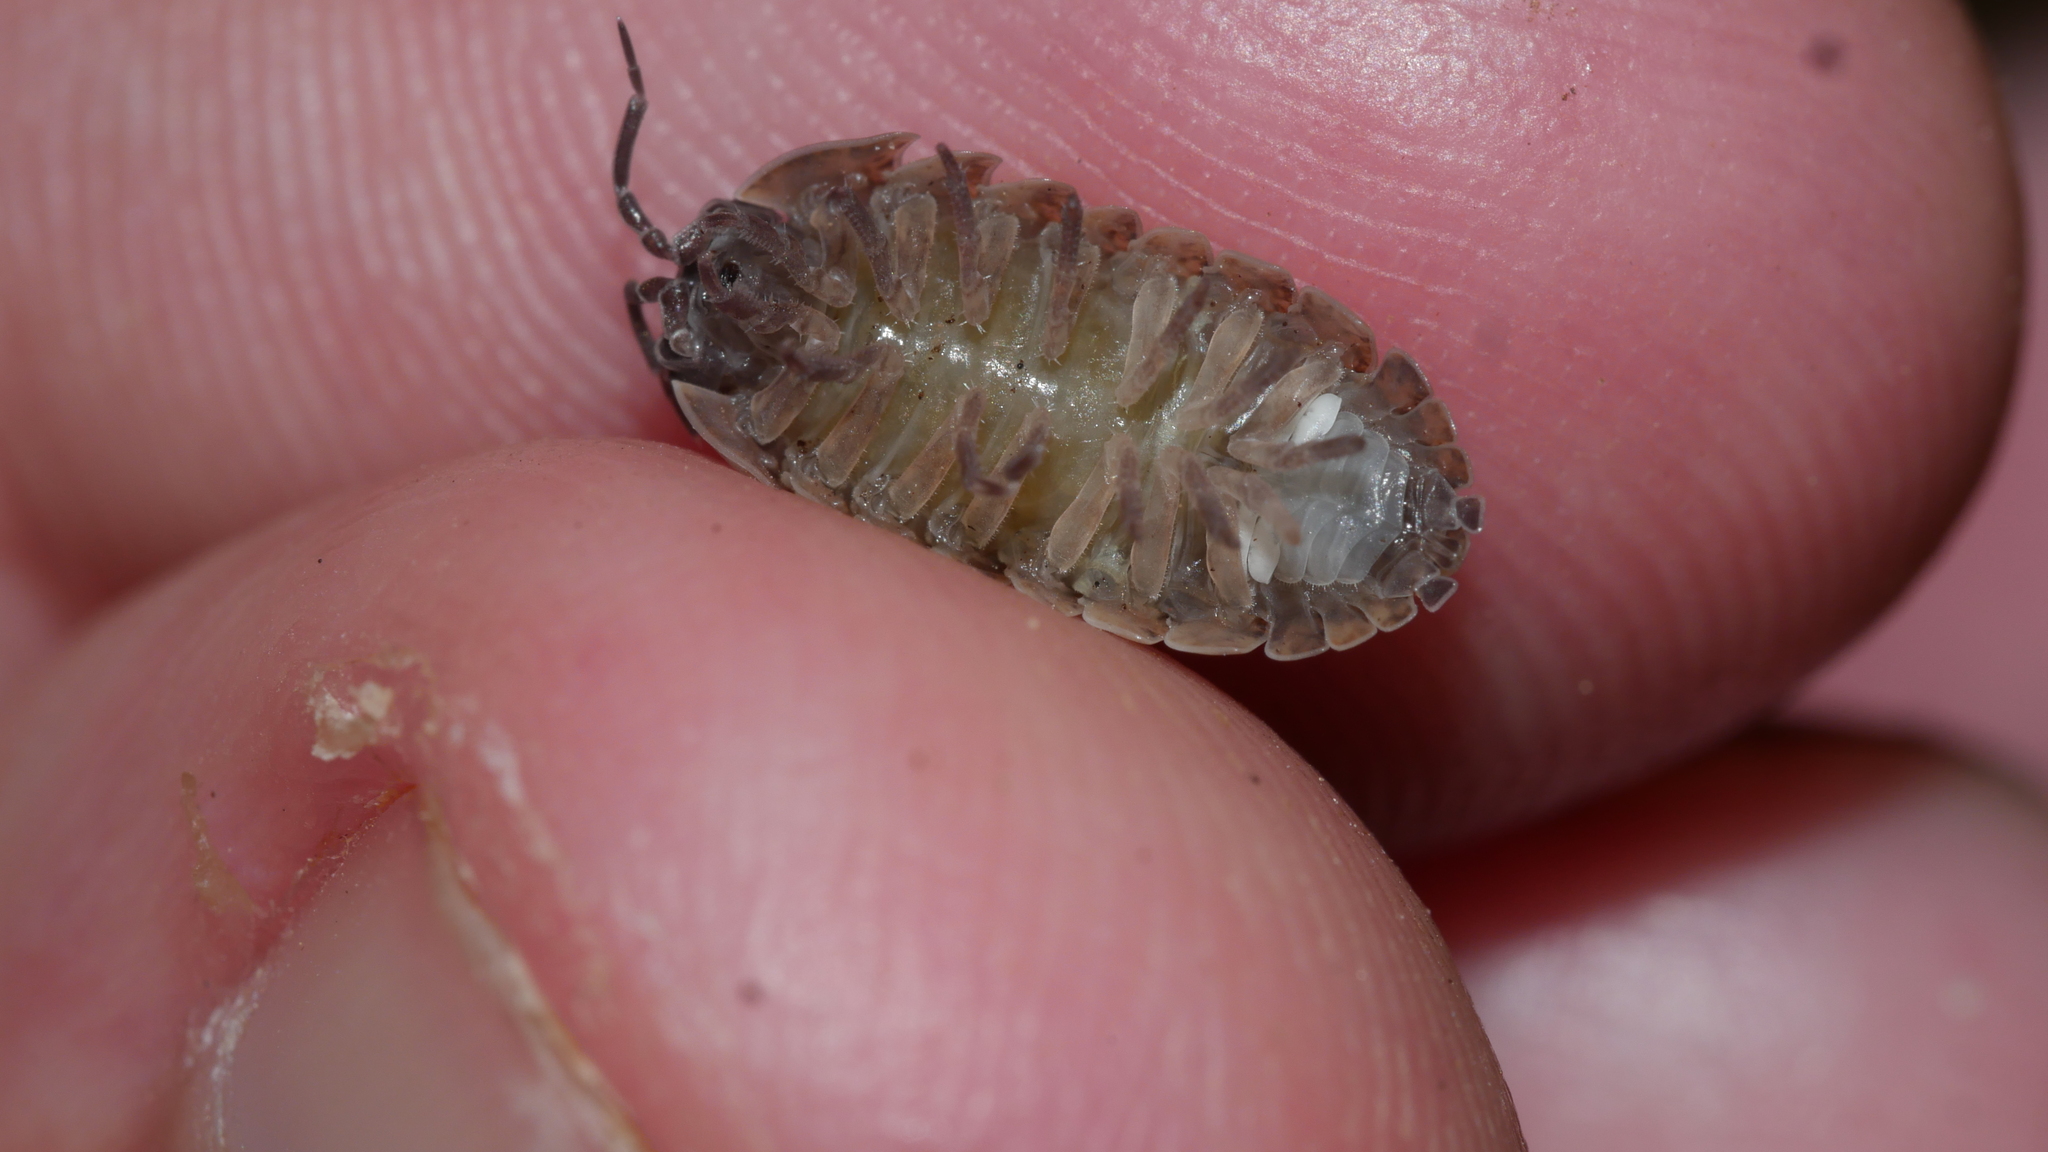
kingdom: Animalia
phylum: Arthropoda
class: Malacostraca
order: Isopoda
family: Armadillidiidae
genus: Armadillidium
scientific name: Armadillidium vulgare
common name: Common pill woodlouse
